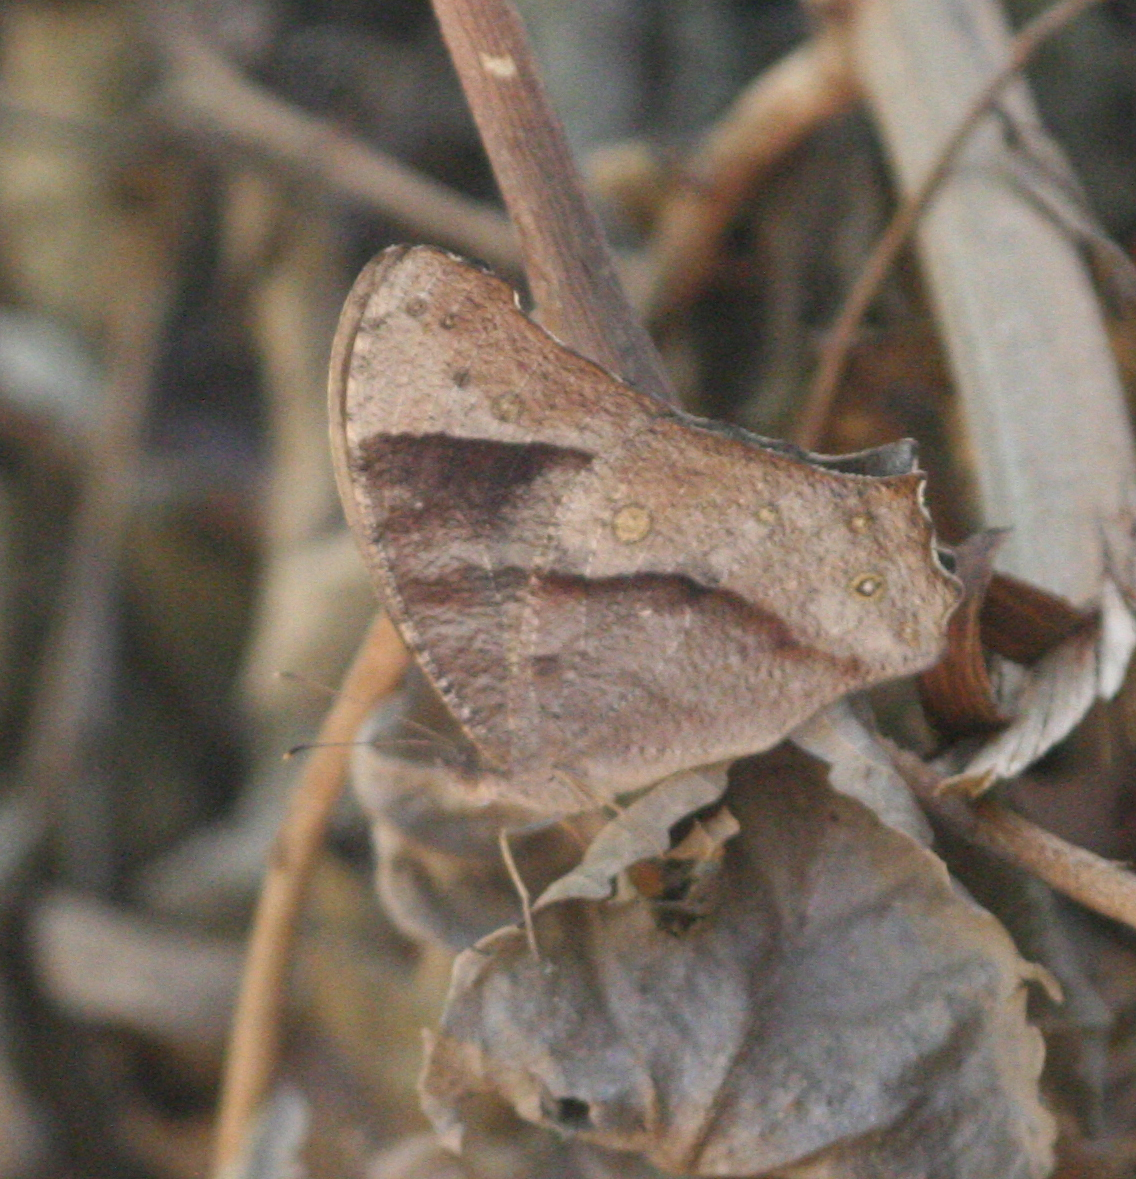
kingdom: Animalia
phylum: Arthropoda
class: Insecta
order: Lepidoptera
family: Nymphalidae
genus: Melanitis
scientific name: Melanitis leda
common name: Twilight brown
